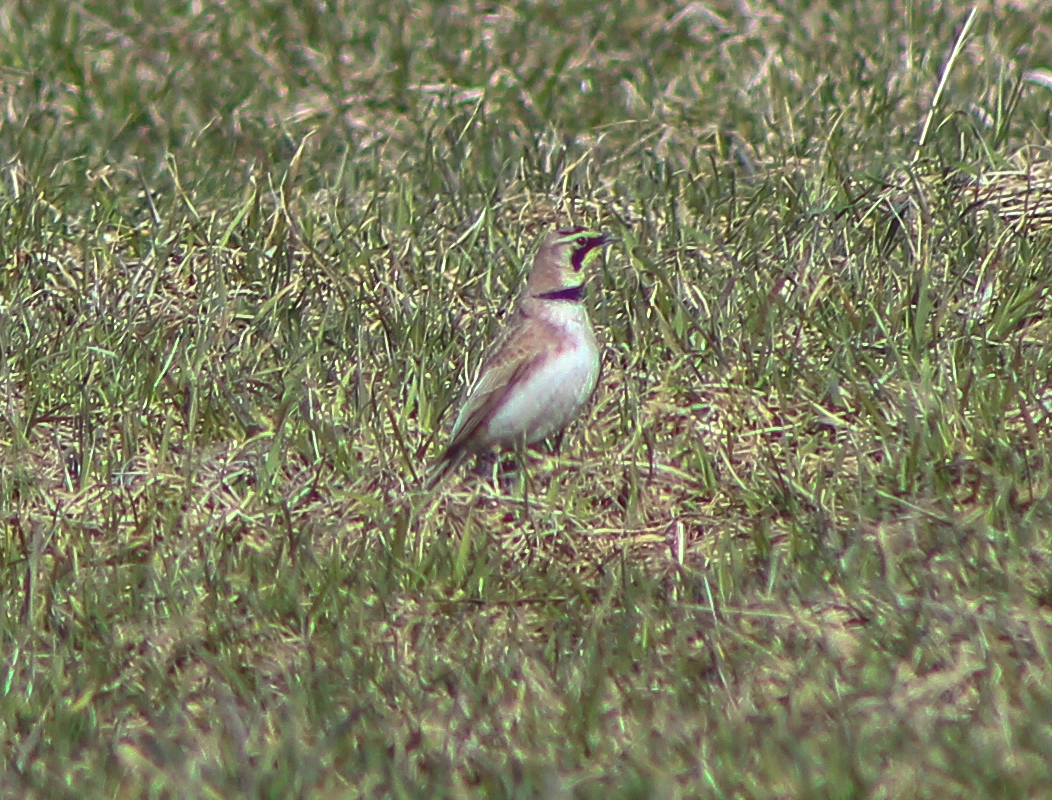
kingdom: Animalia
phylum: Chordata
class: Aves
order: Passeriformes
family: Alaudidae
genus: Eremophila
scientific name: Eremophila alpestris
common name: Horned lark
